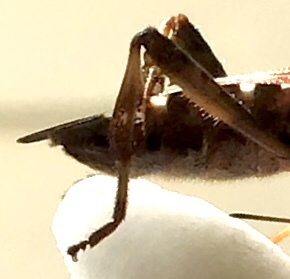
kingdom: Animalia
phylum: Arthropoda
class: Insecta
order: Hemiptera
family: Coreidae
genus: Leptoglossus
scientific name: Leptoglossus occidentalis
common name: Western conifer-seed bug
